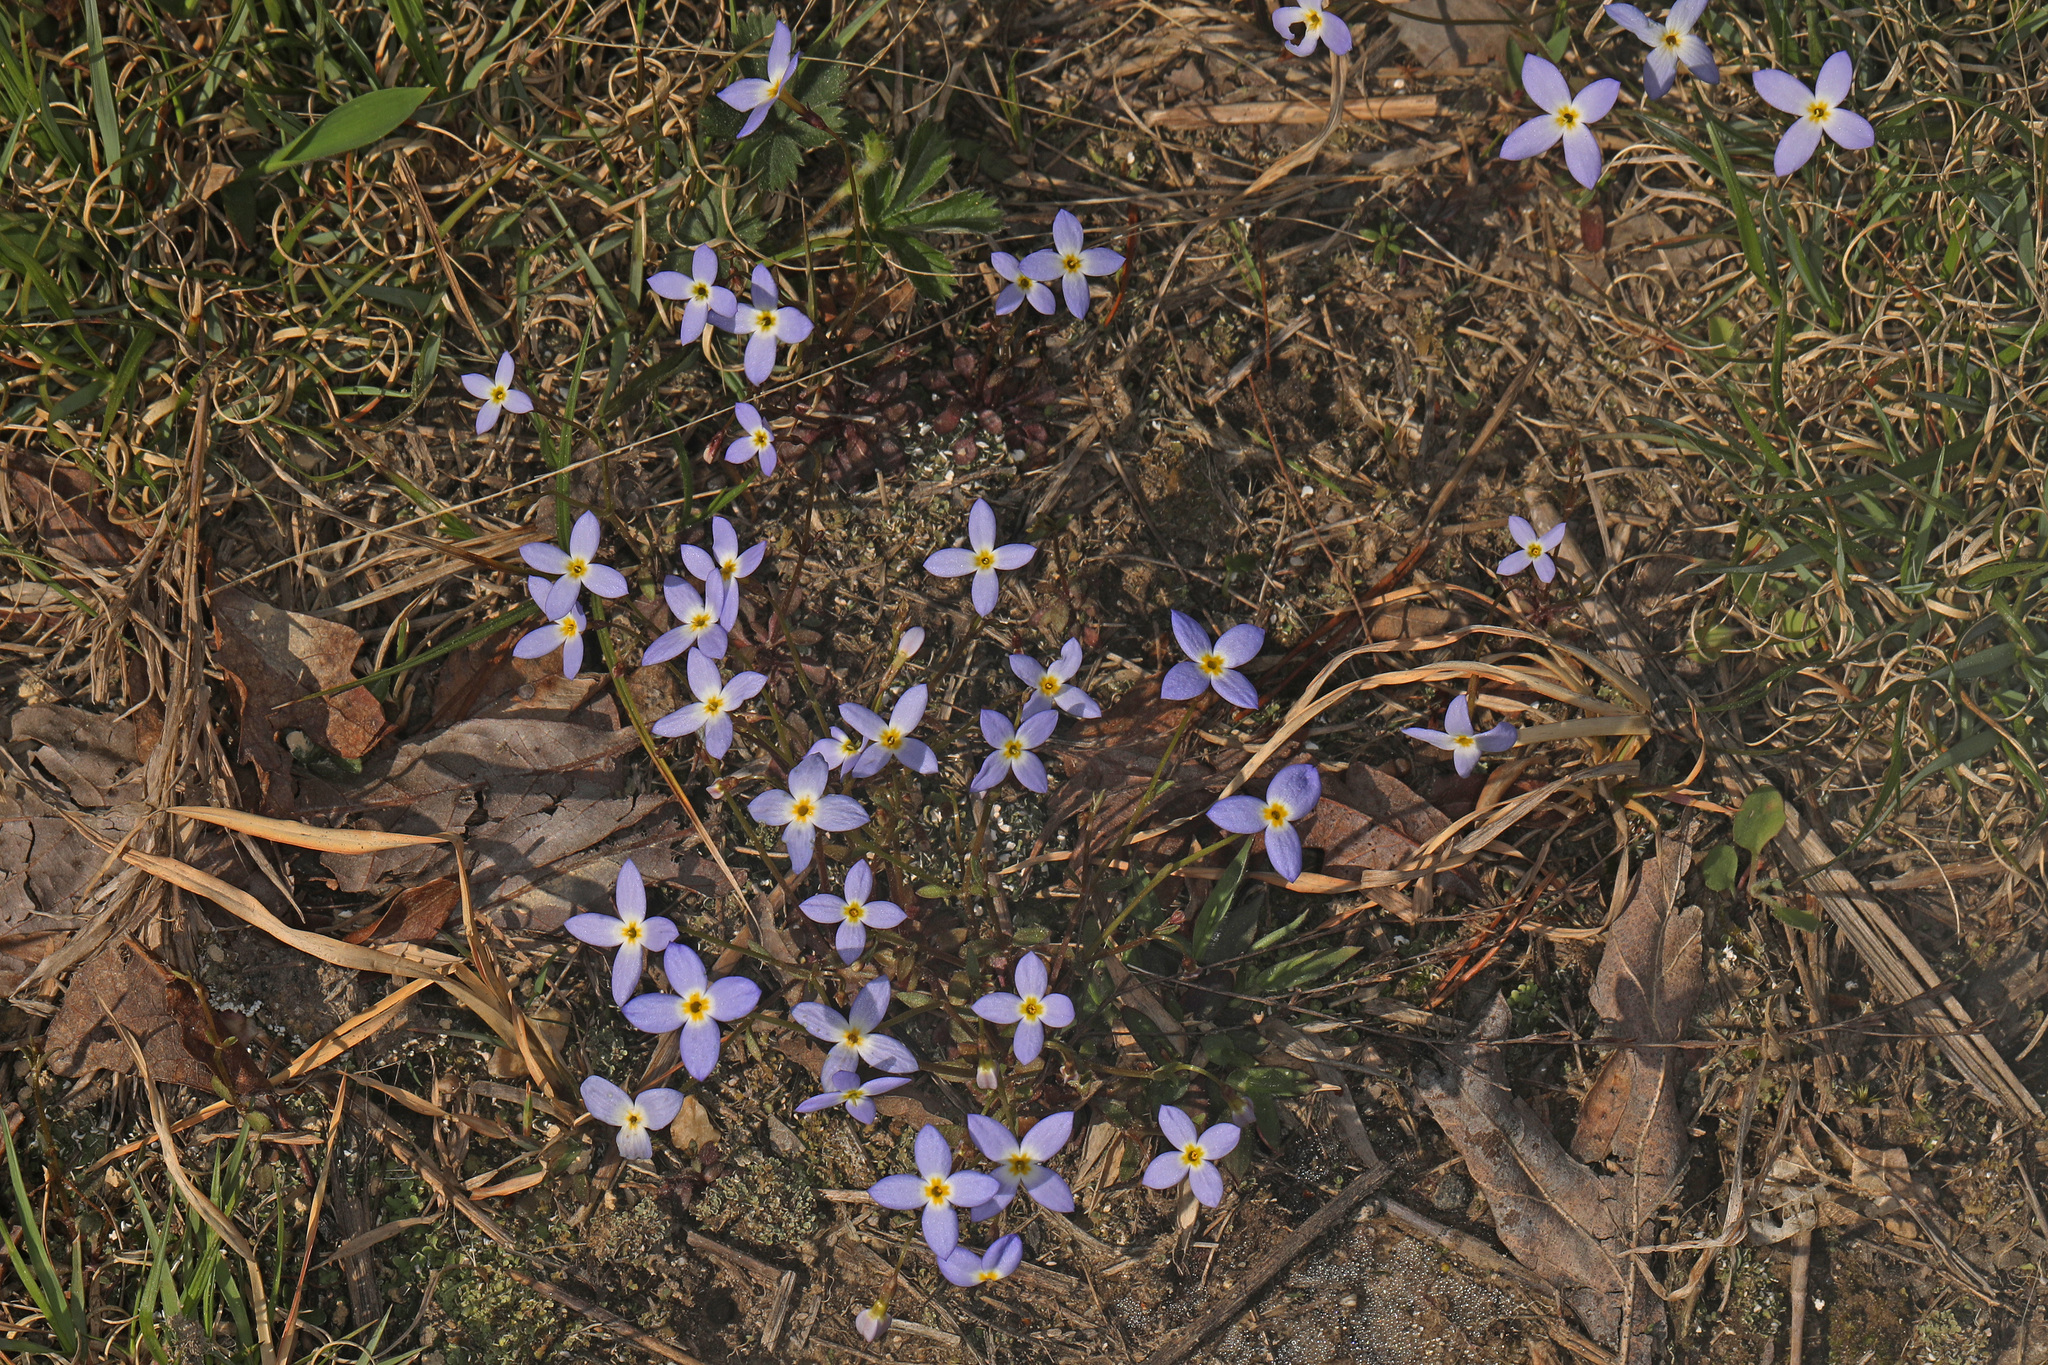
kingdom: Plantae
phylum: Tracheophyta
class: Magnoliopsida
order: Gentianales
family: Rubiaceae
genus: Houstonia
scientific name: Houstonia caerulea
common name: Bluets
